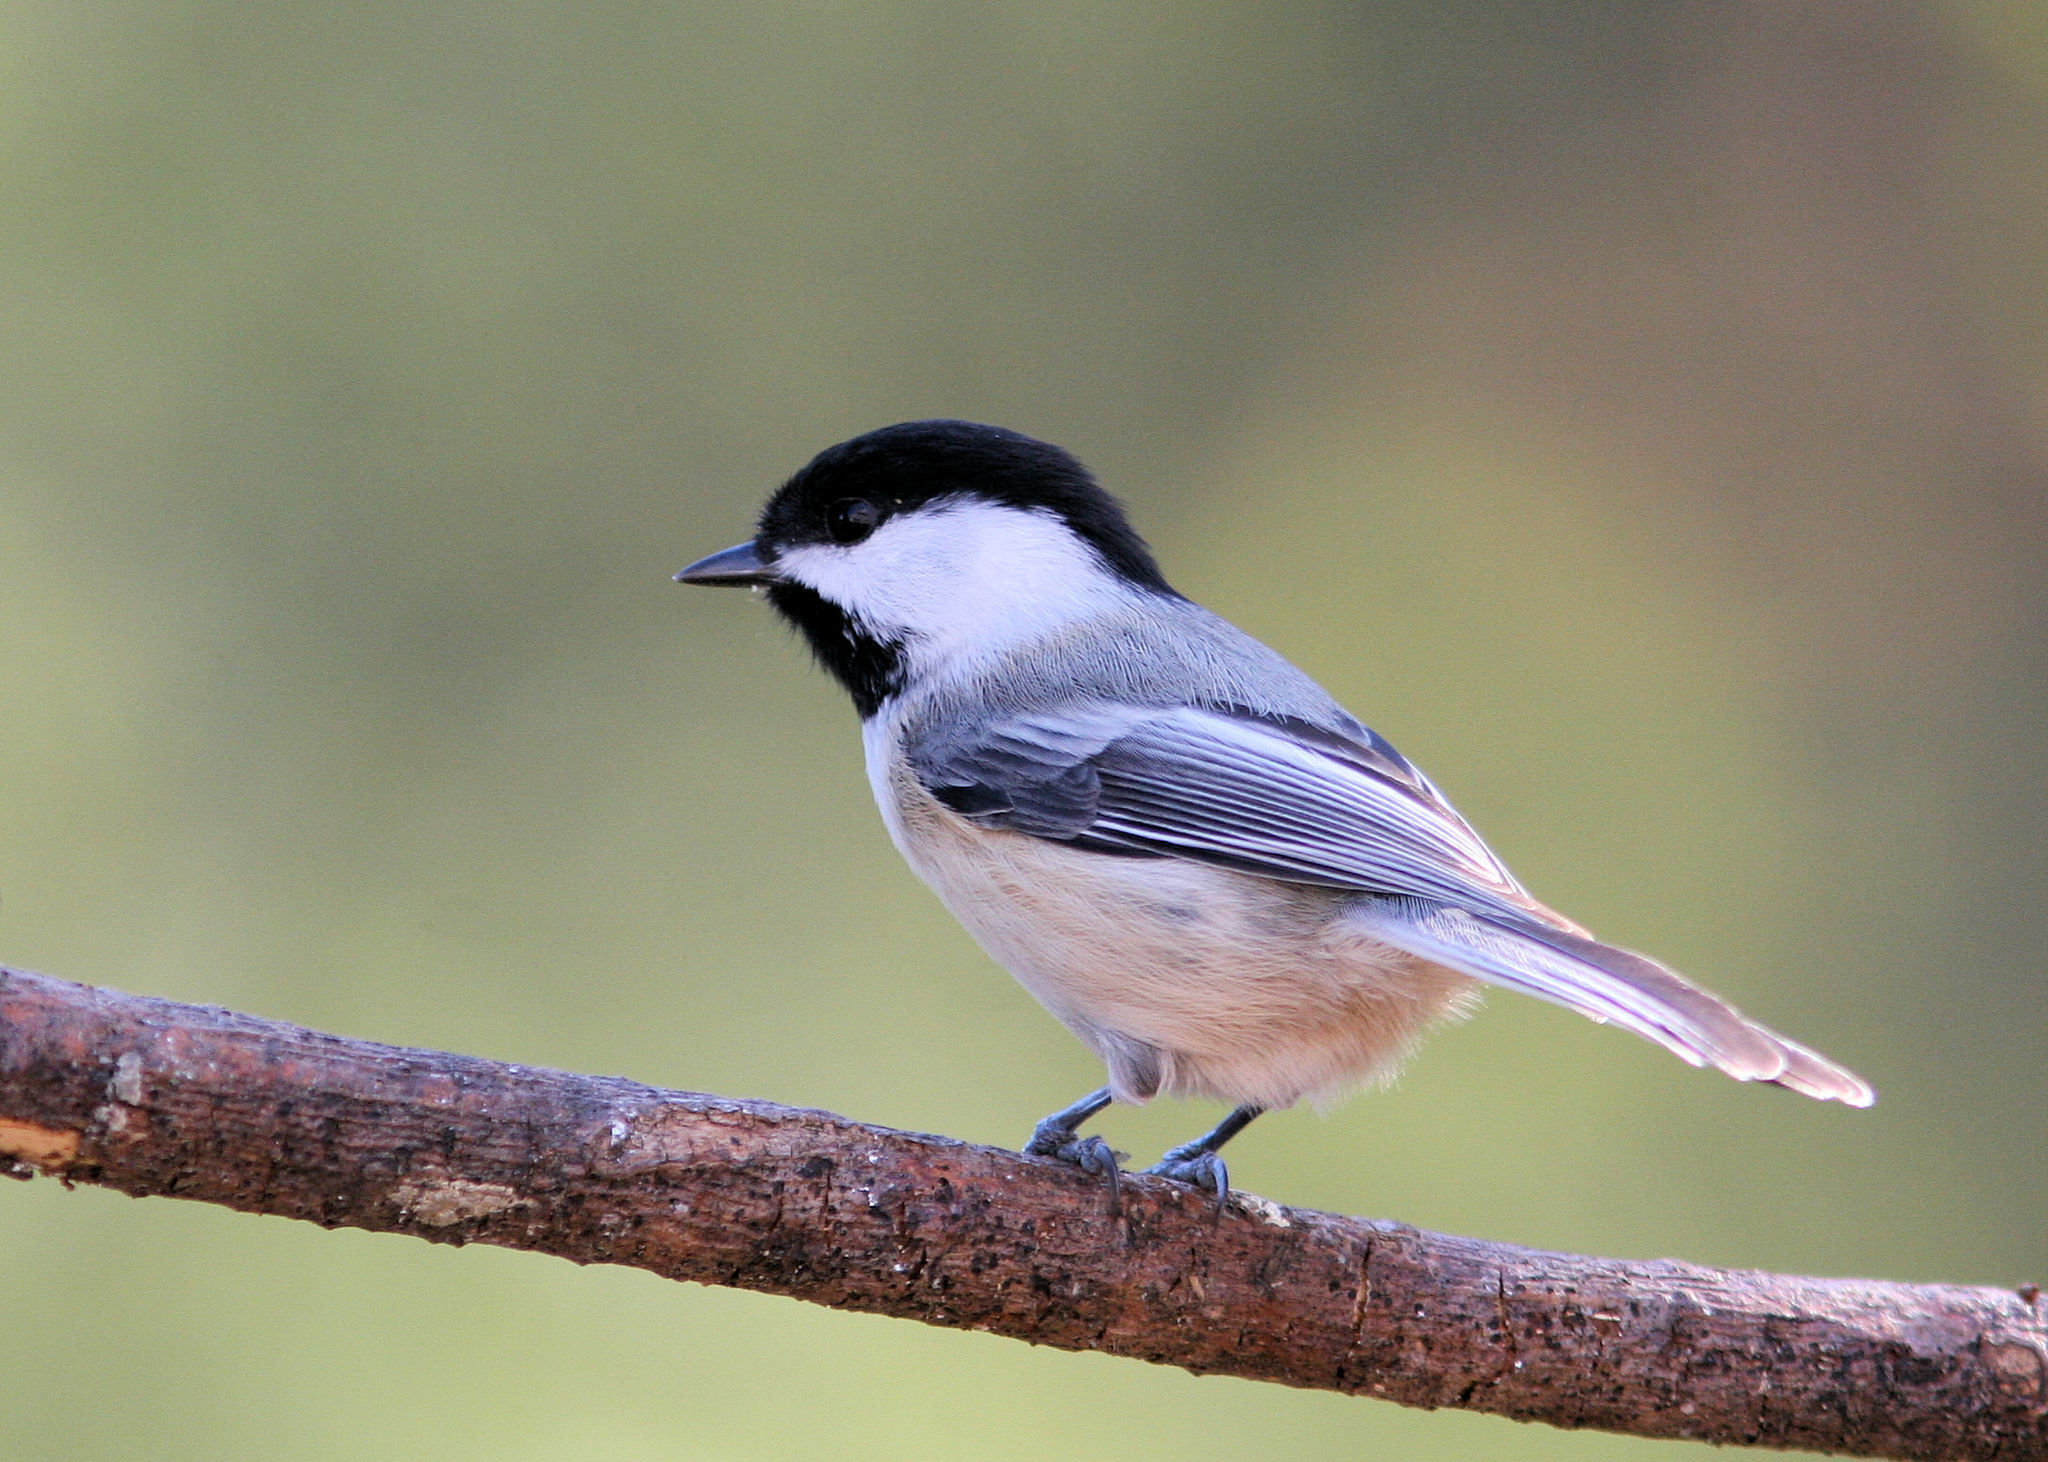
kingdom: Animalia
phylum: Chordata
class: Aves
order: Passeriformes
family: Paridae
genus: Poecile
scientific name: Poecile atricapillus
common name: Black-capped chickadee
